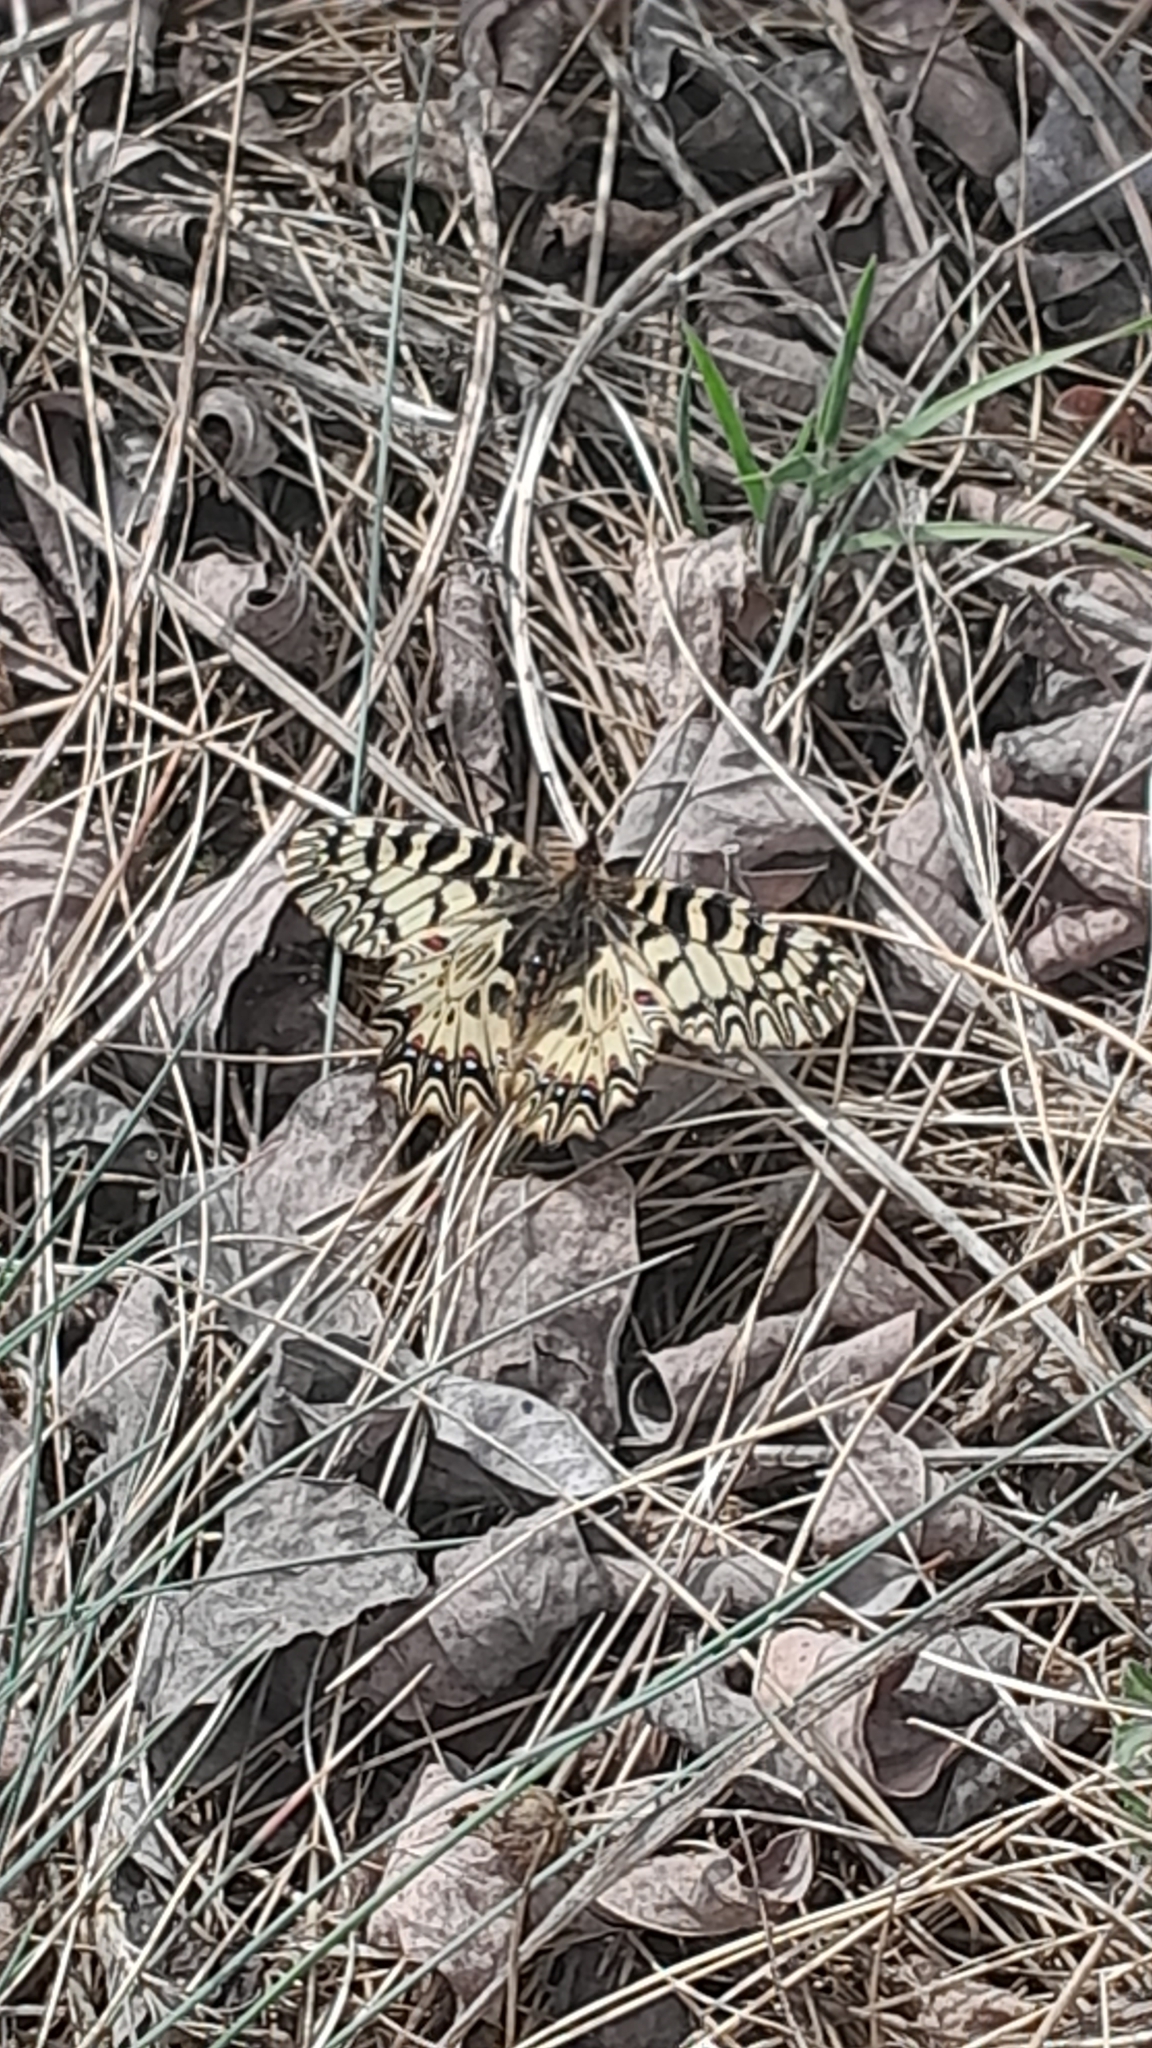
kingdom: Animalia
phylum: Arthropoda
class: Insecta
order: Lepidoptera
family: Papilionidae
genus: Zerynthia
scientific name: Zerynthia polyxena
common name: Southern festoon
